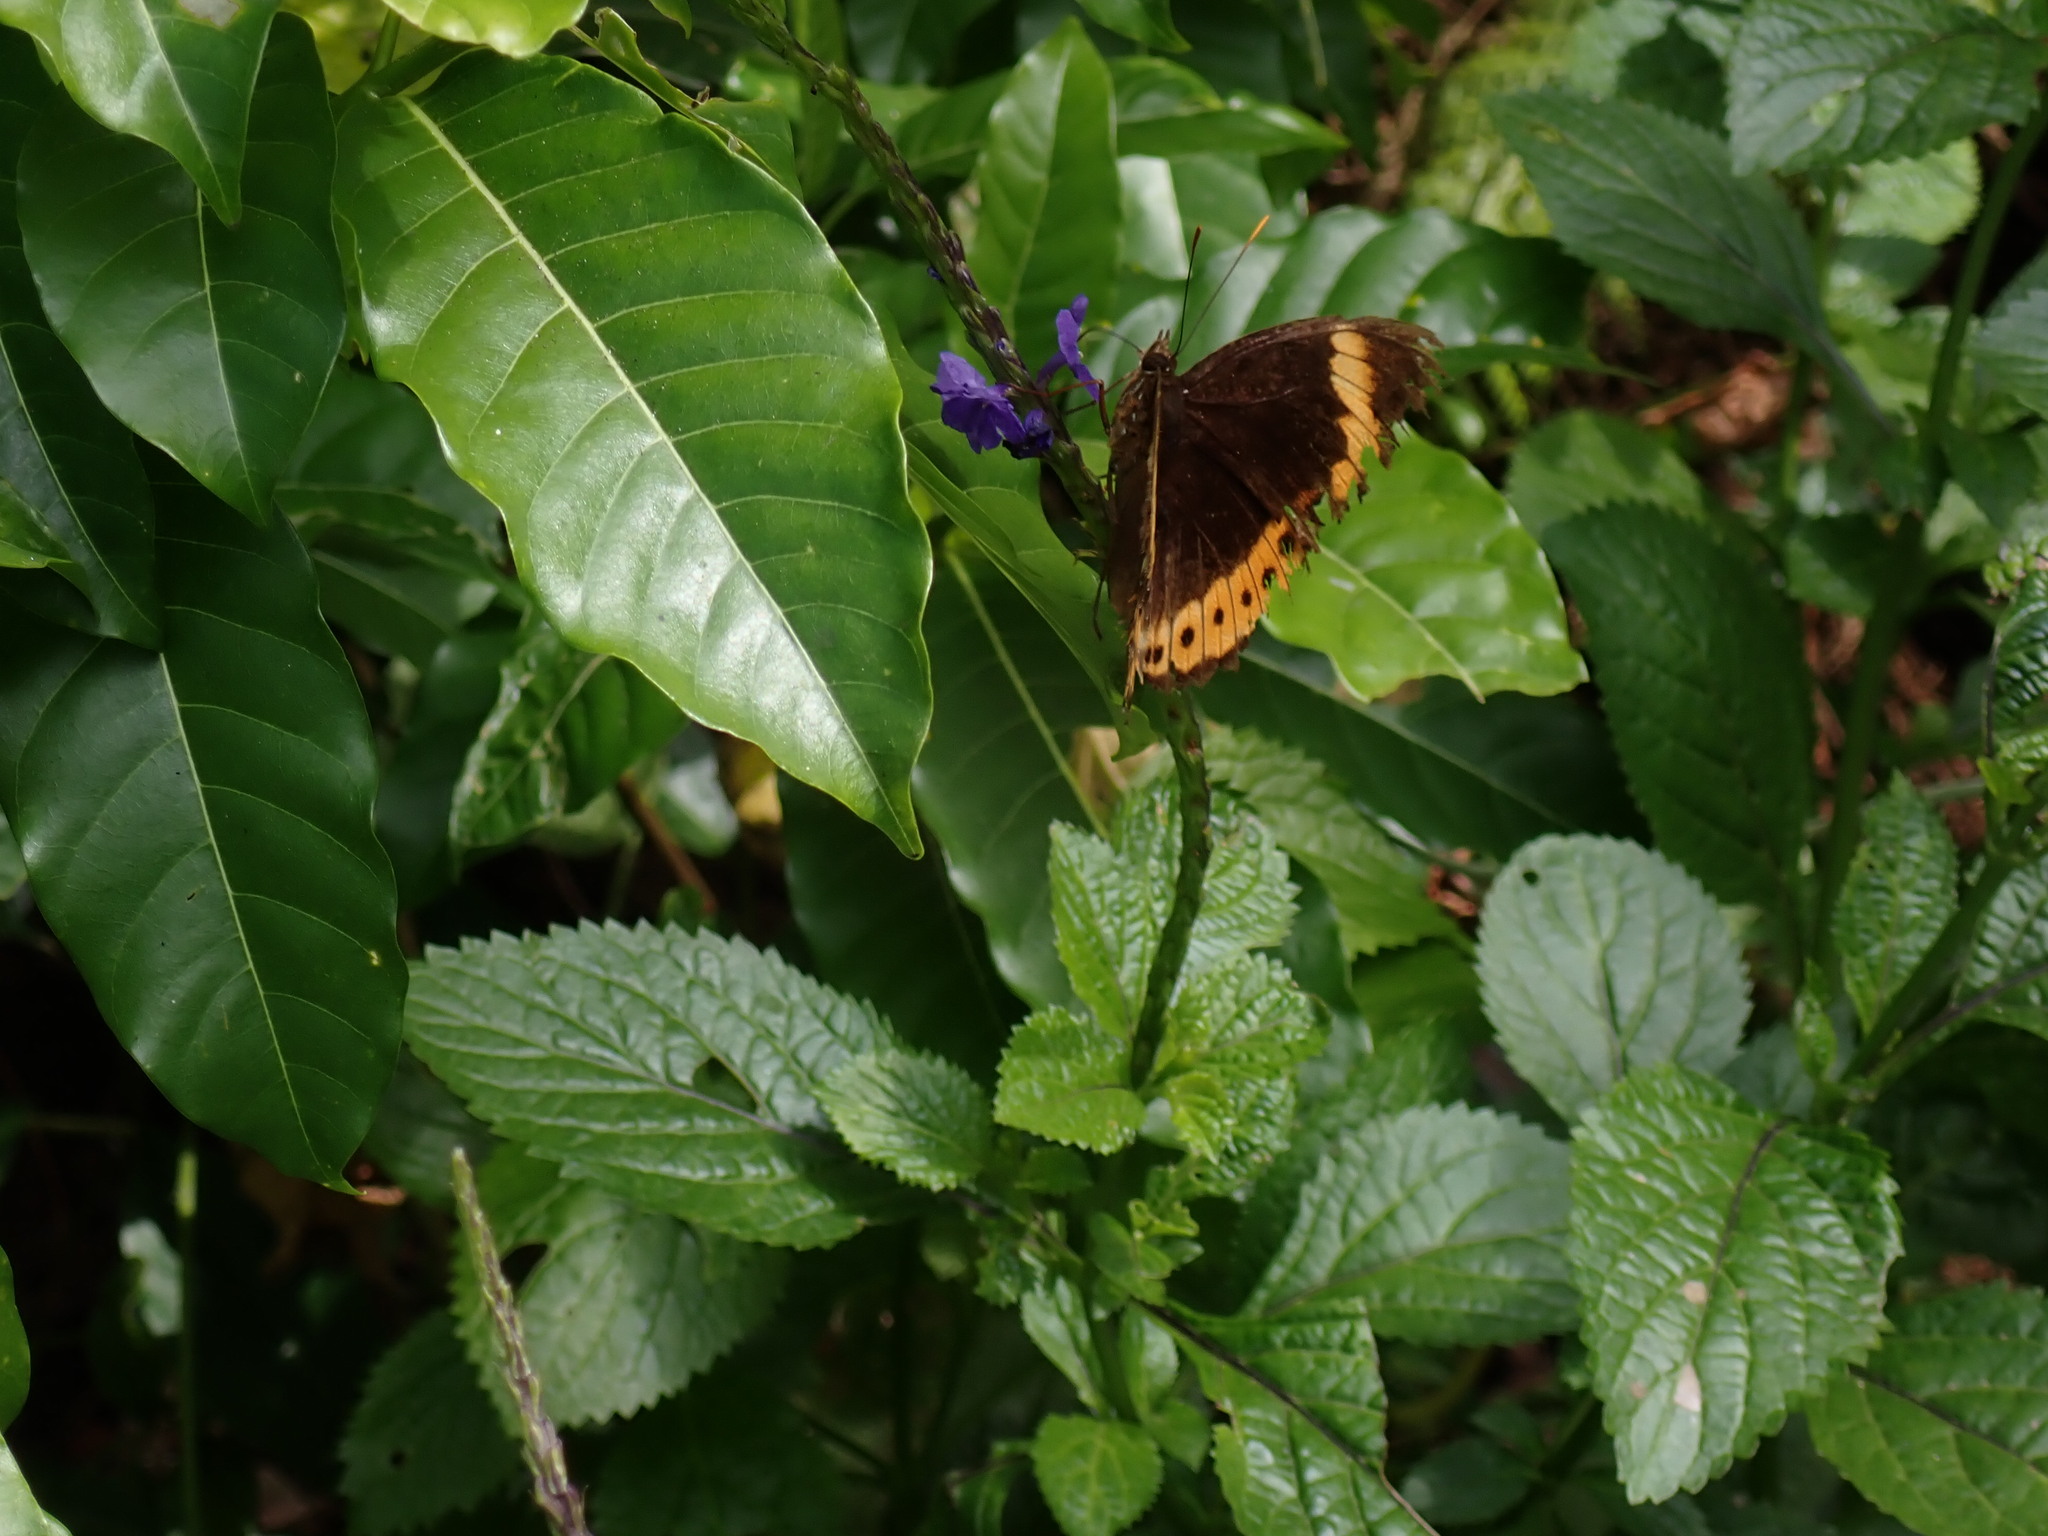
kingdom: Animalia
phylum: Arthropoda
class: Insecta
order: Lepidoptera
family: Nymphalidae
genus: Hypolimnas
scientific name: Hypolimnas octocula
